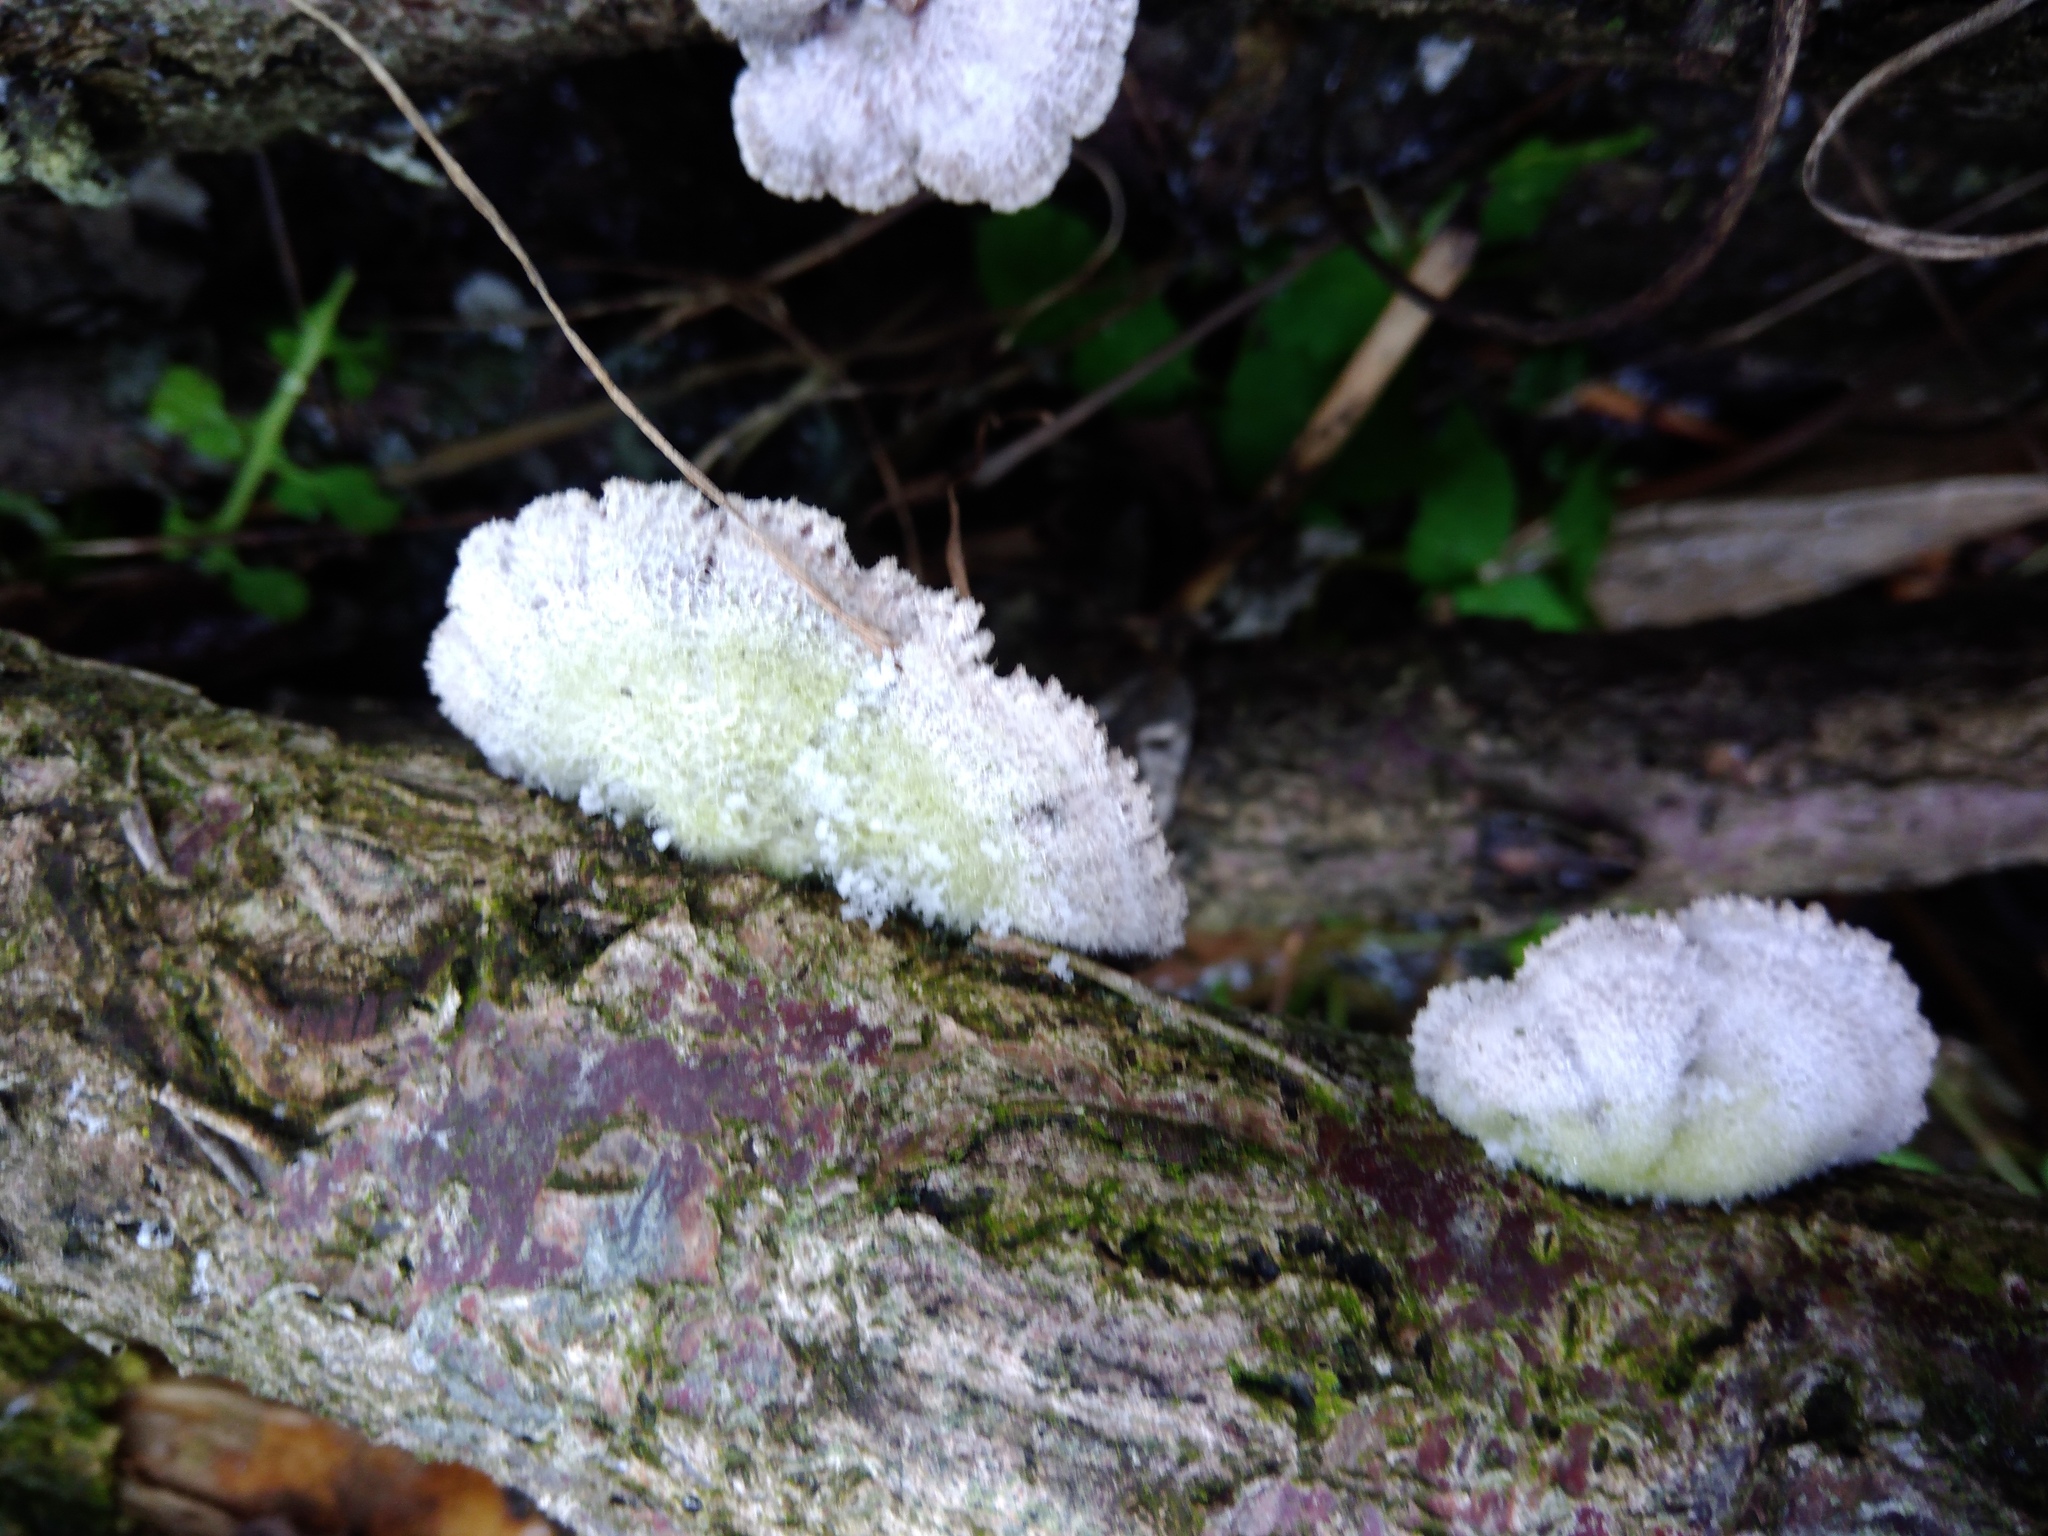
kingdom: Fungi
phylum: Basidiomycota
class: Agaricomycetes
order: Agaricales
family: Schizophyllaceae
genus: Schizophyllum
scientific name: Schizophyllum commune
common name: Common porecrust
